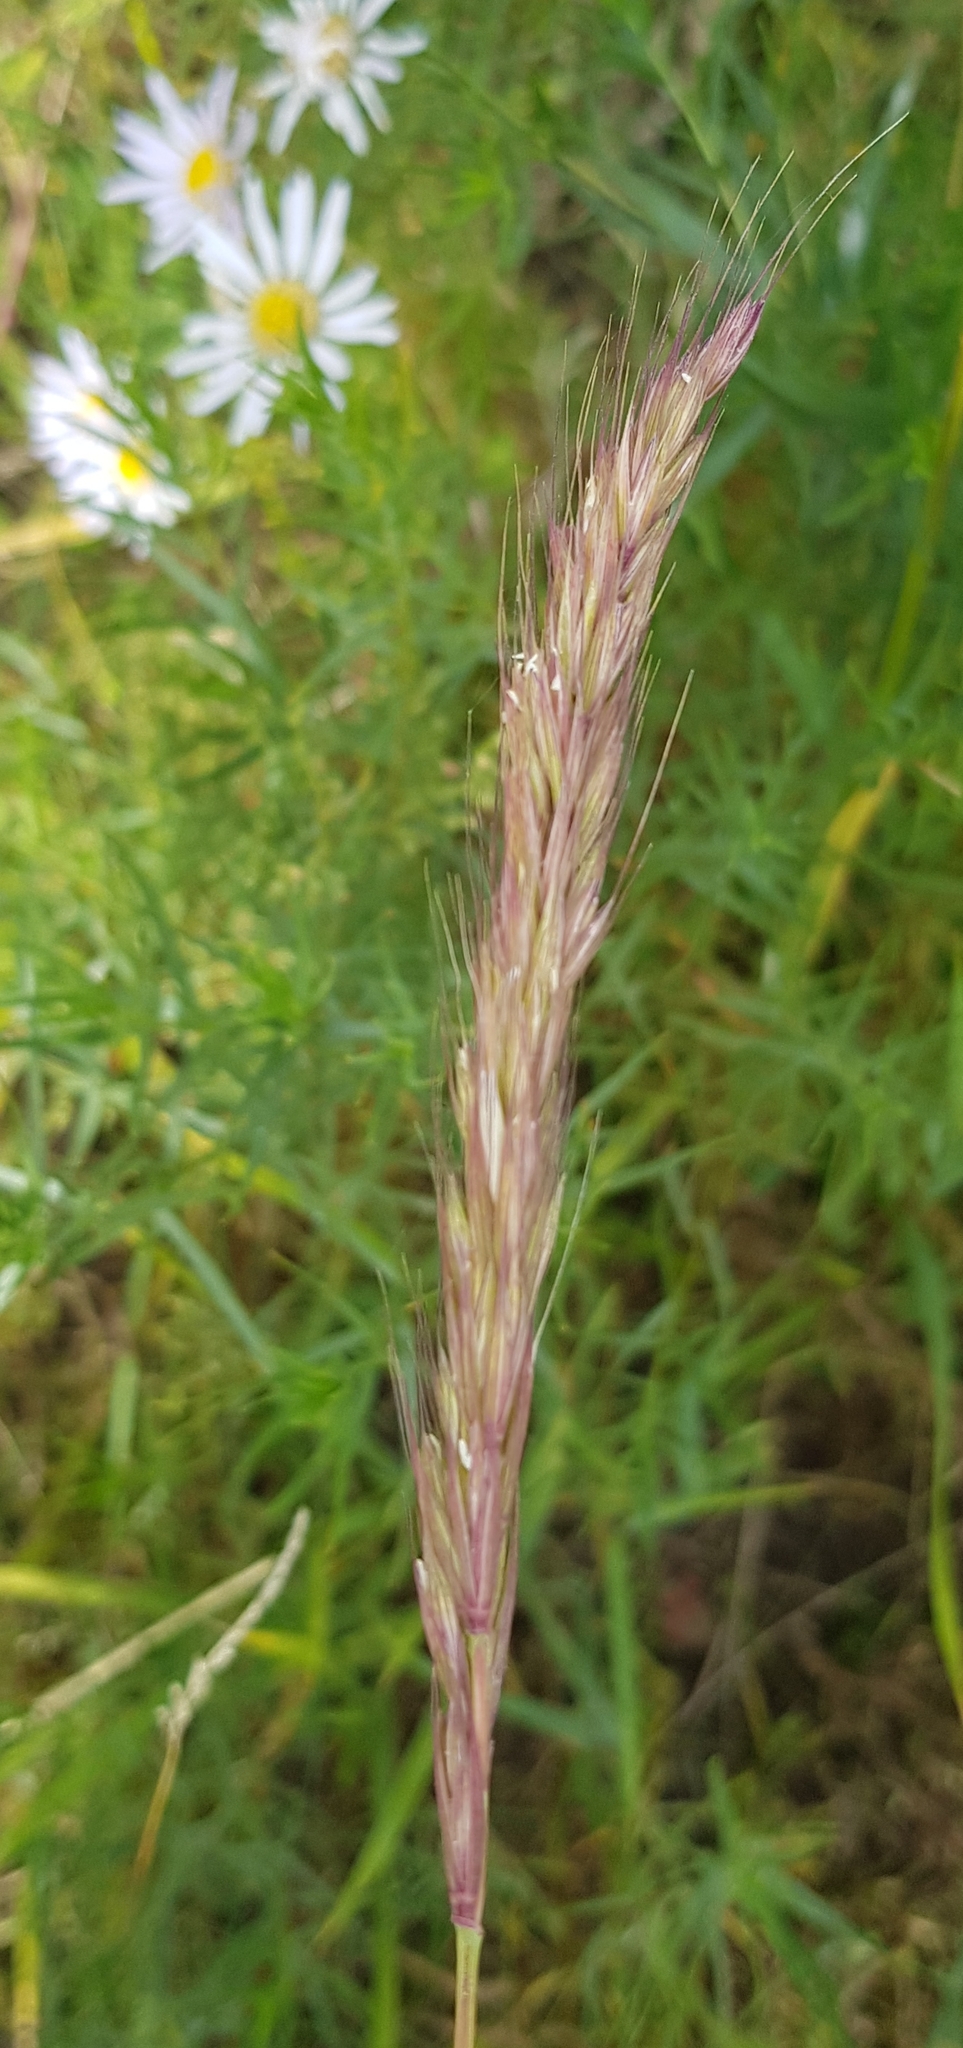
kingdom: Plantae
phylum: Tracheophyta
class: Liliopsida
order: Poales
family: Poaceae
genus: Koeleria
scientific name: Koeleria spicata
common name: Mountain trisetum
